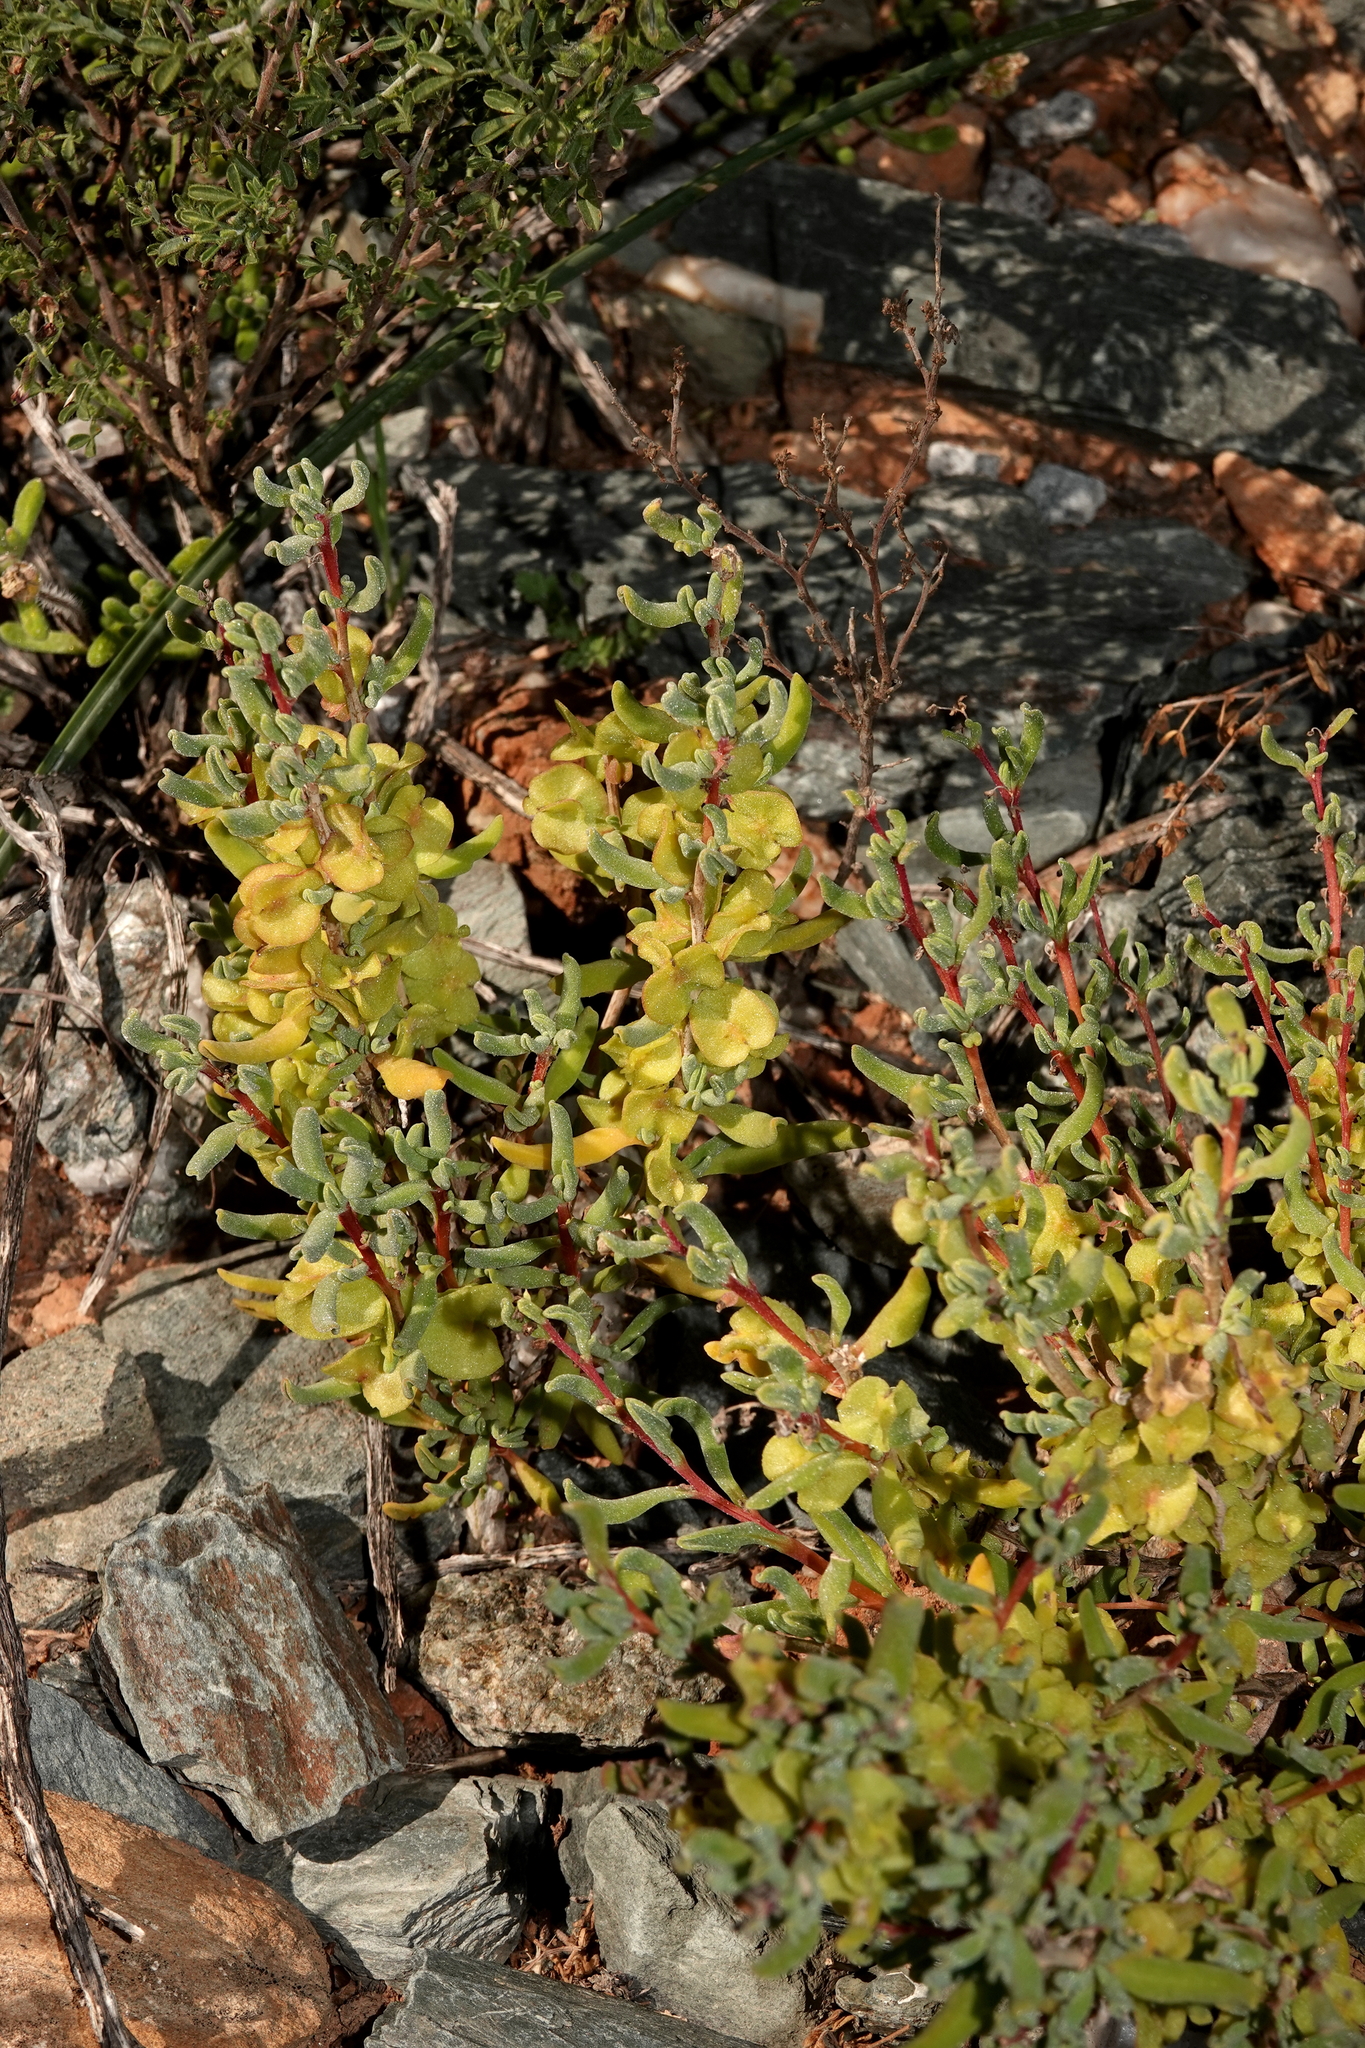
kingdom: Plantae
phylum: Tracheophyta
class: Magnoliopsida
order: Caryophyllales
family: Aizoaceae
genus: Tetragonia
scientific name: Tetragonia fruticosa
